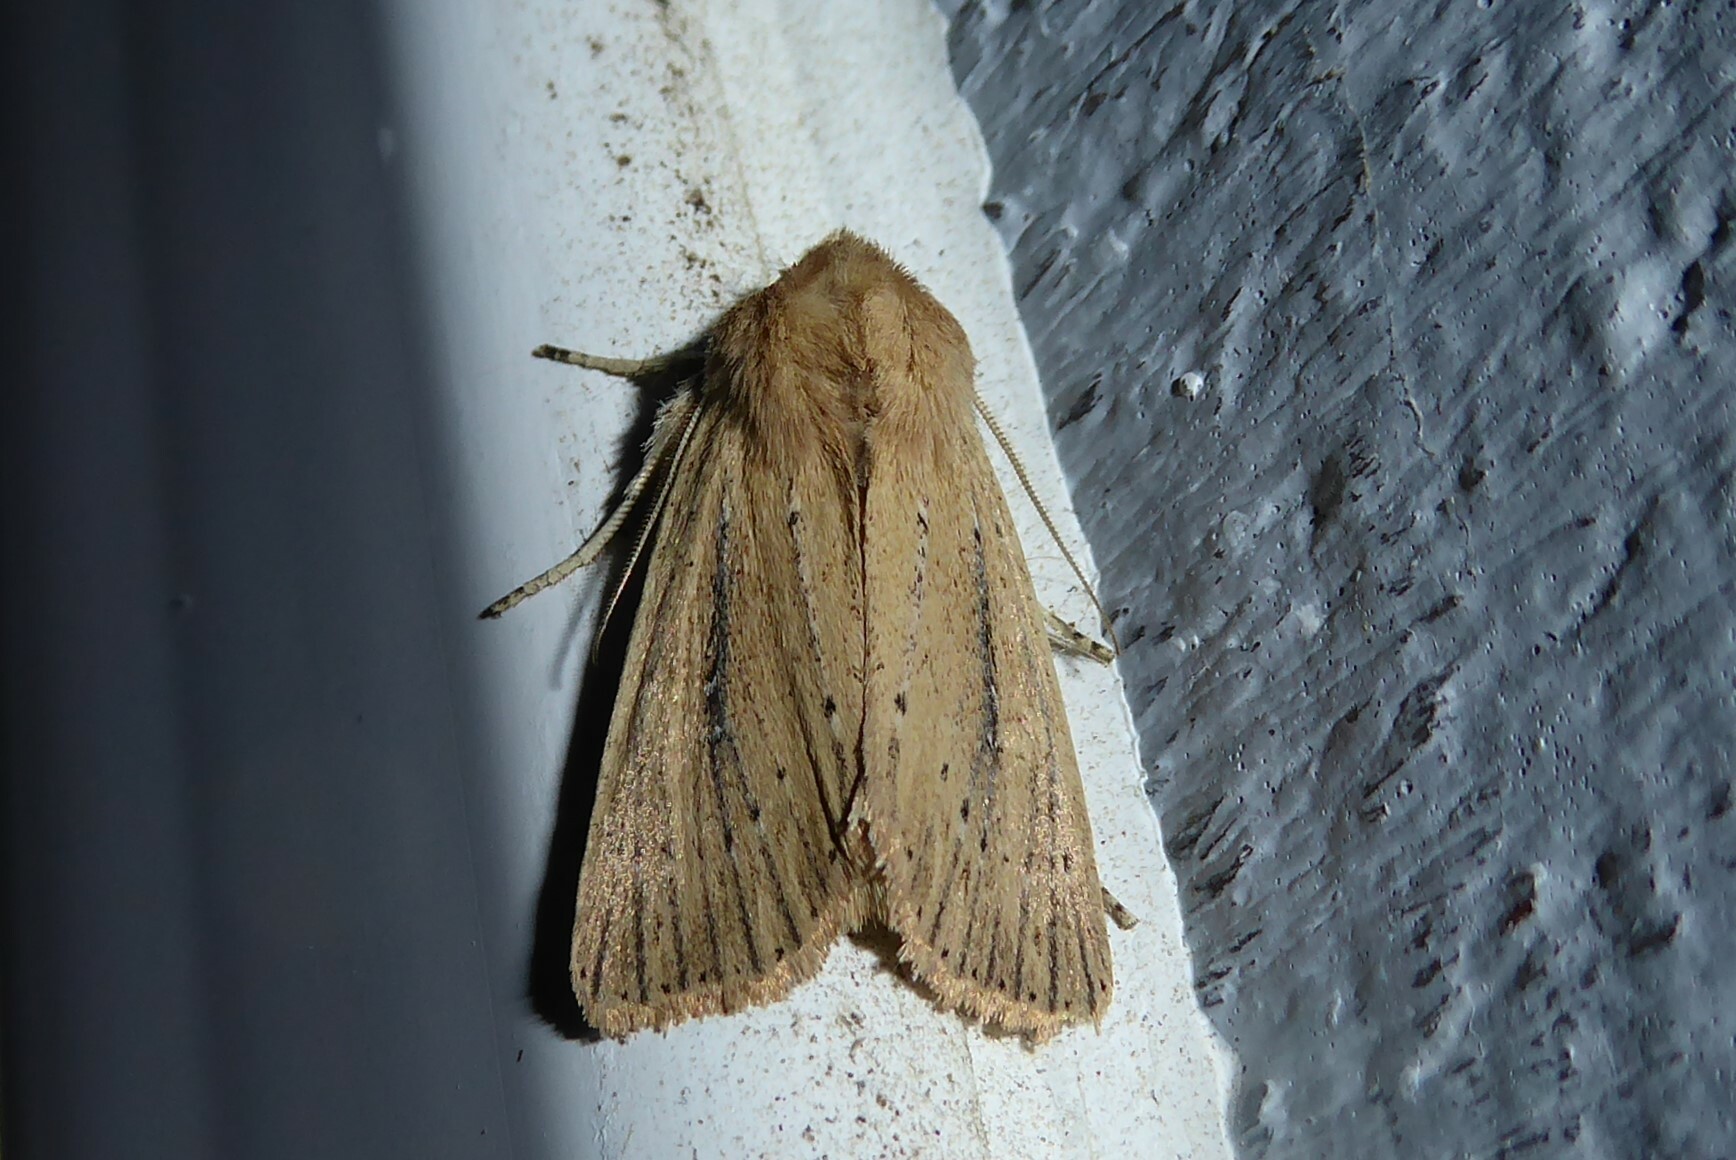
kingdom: Animalia
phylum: Arthropoda
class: Insecta
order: Lepidoptera
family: Noctuidae
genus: Ichneutica
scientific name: Ichneutica
